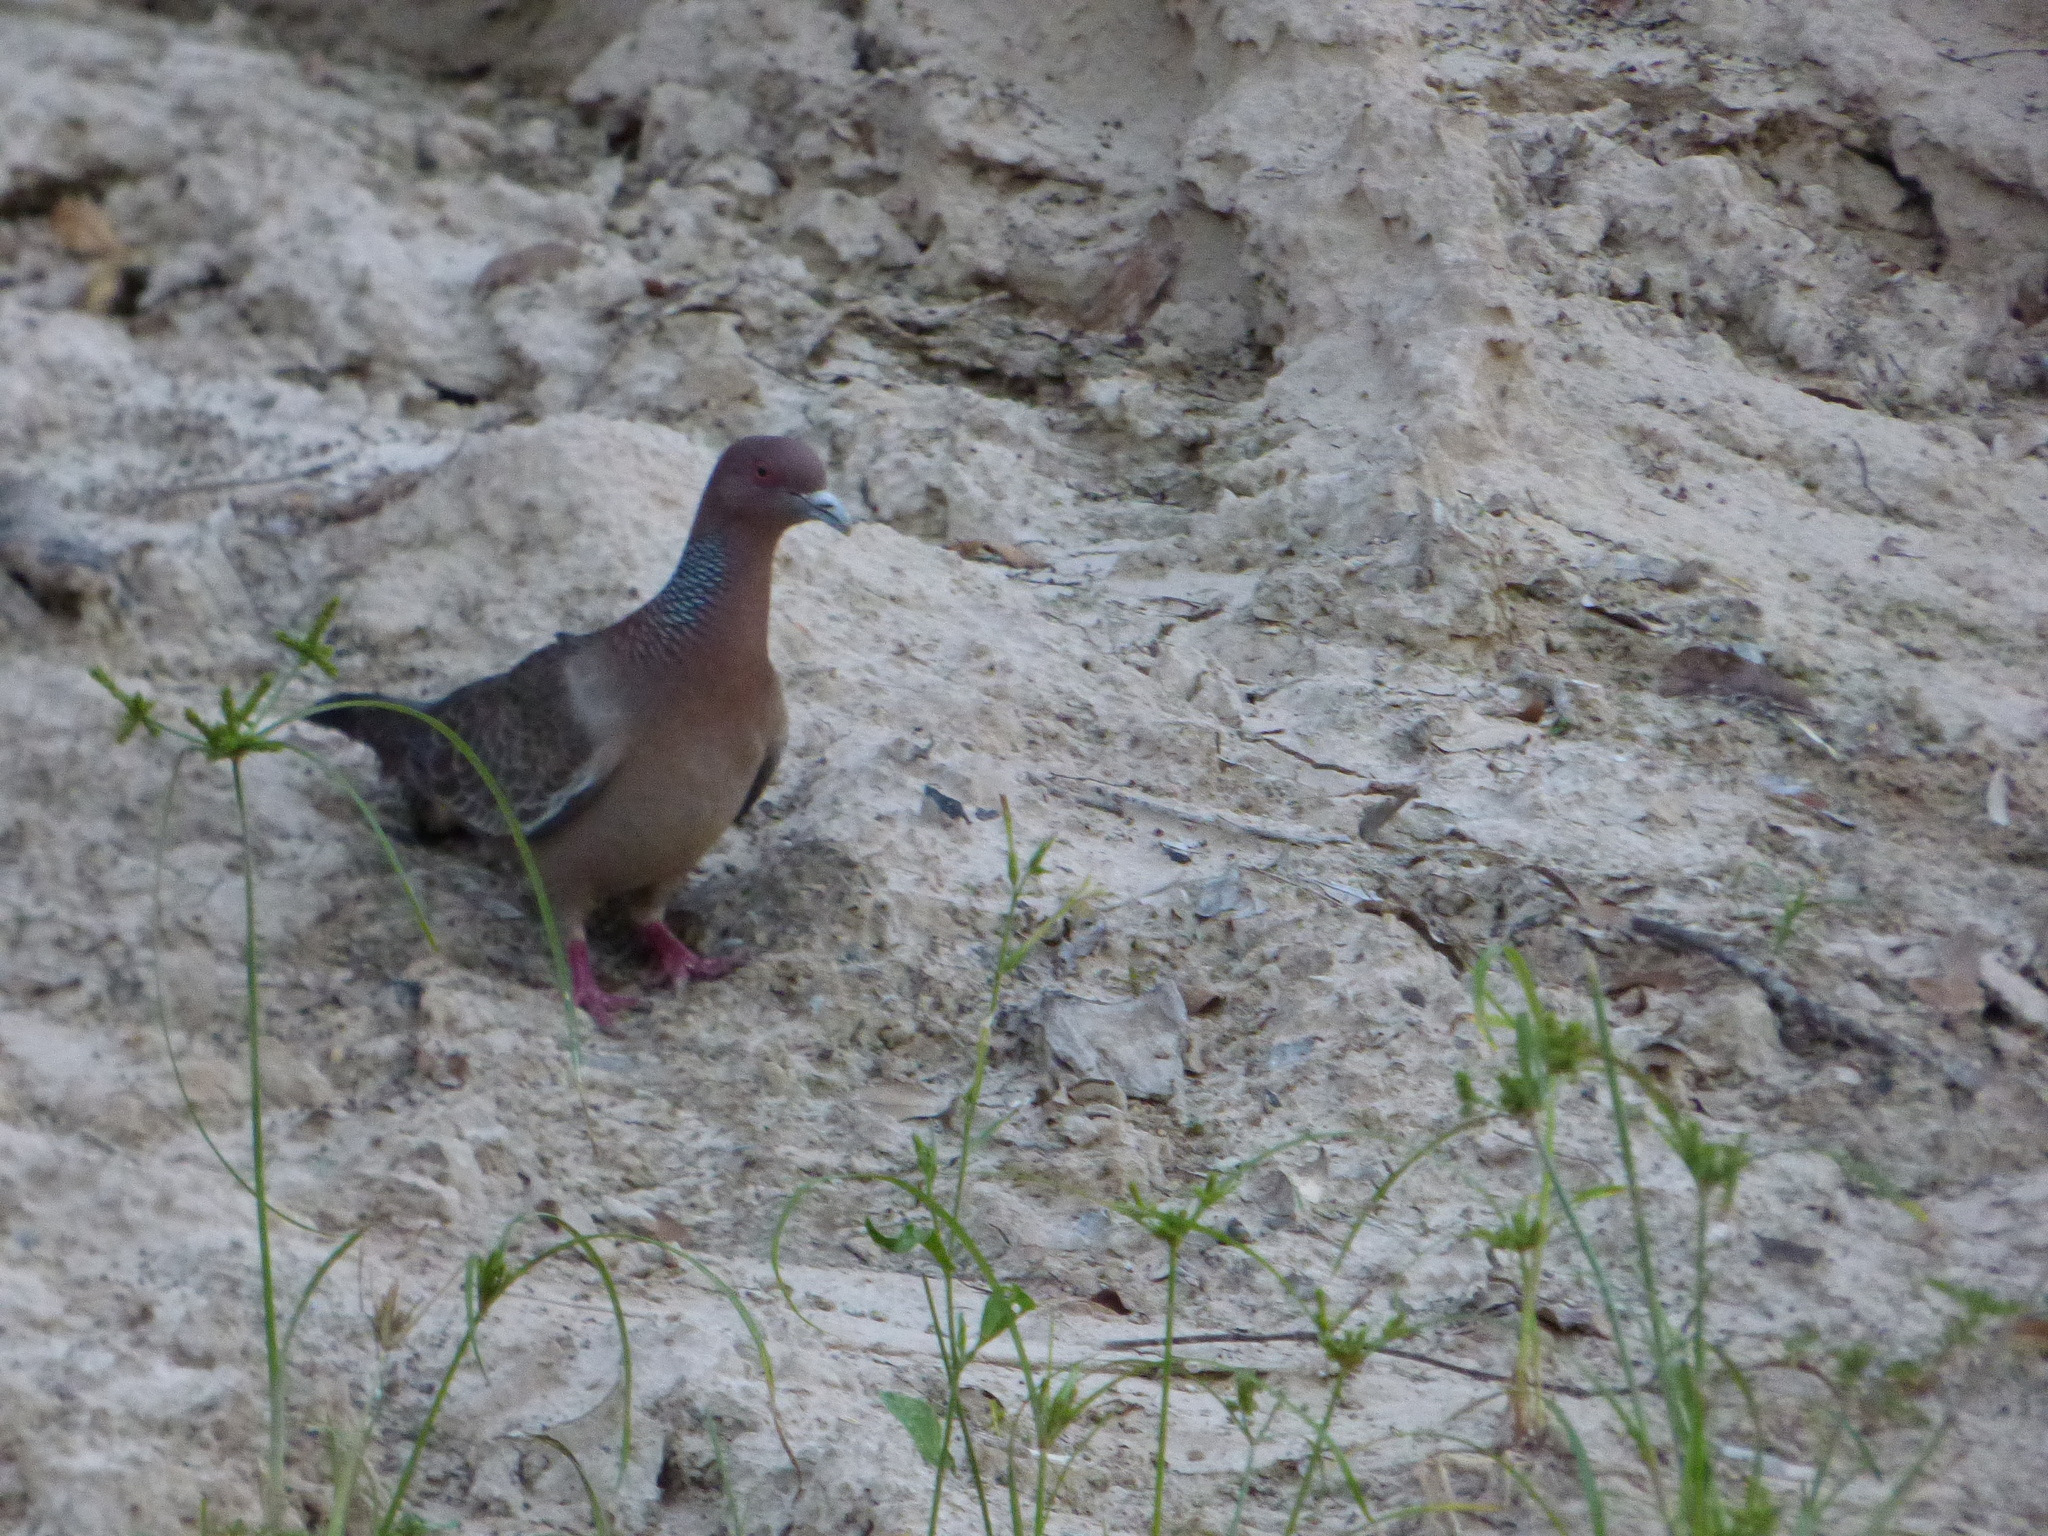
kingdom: Animalia
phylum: Chordata
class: Aves
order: Columbiformes
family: Columbidae
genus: Patagioenas
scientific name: Patagioenas picazuro
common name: Picazuro pigeon
